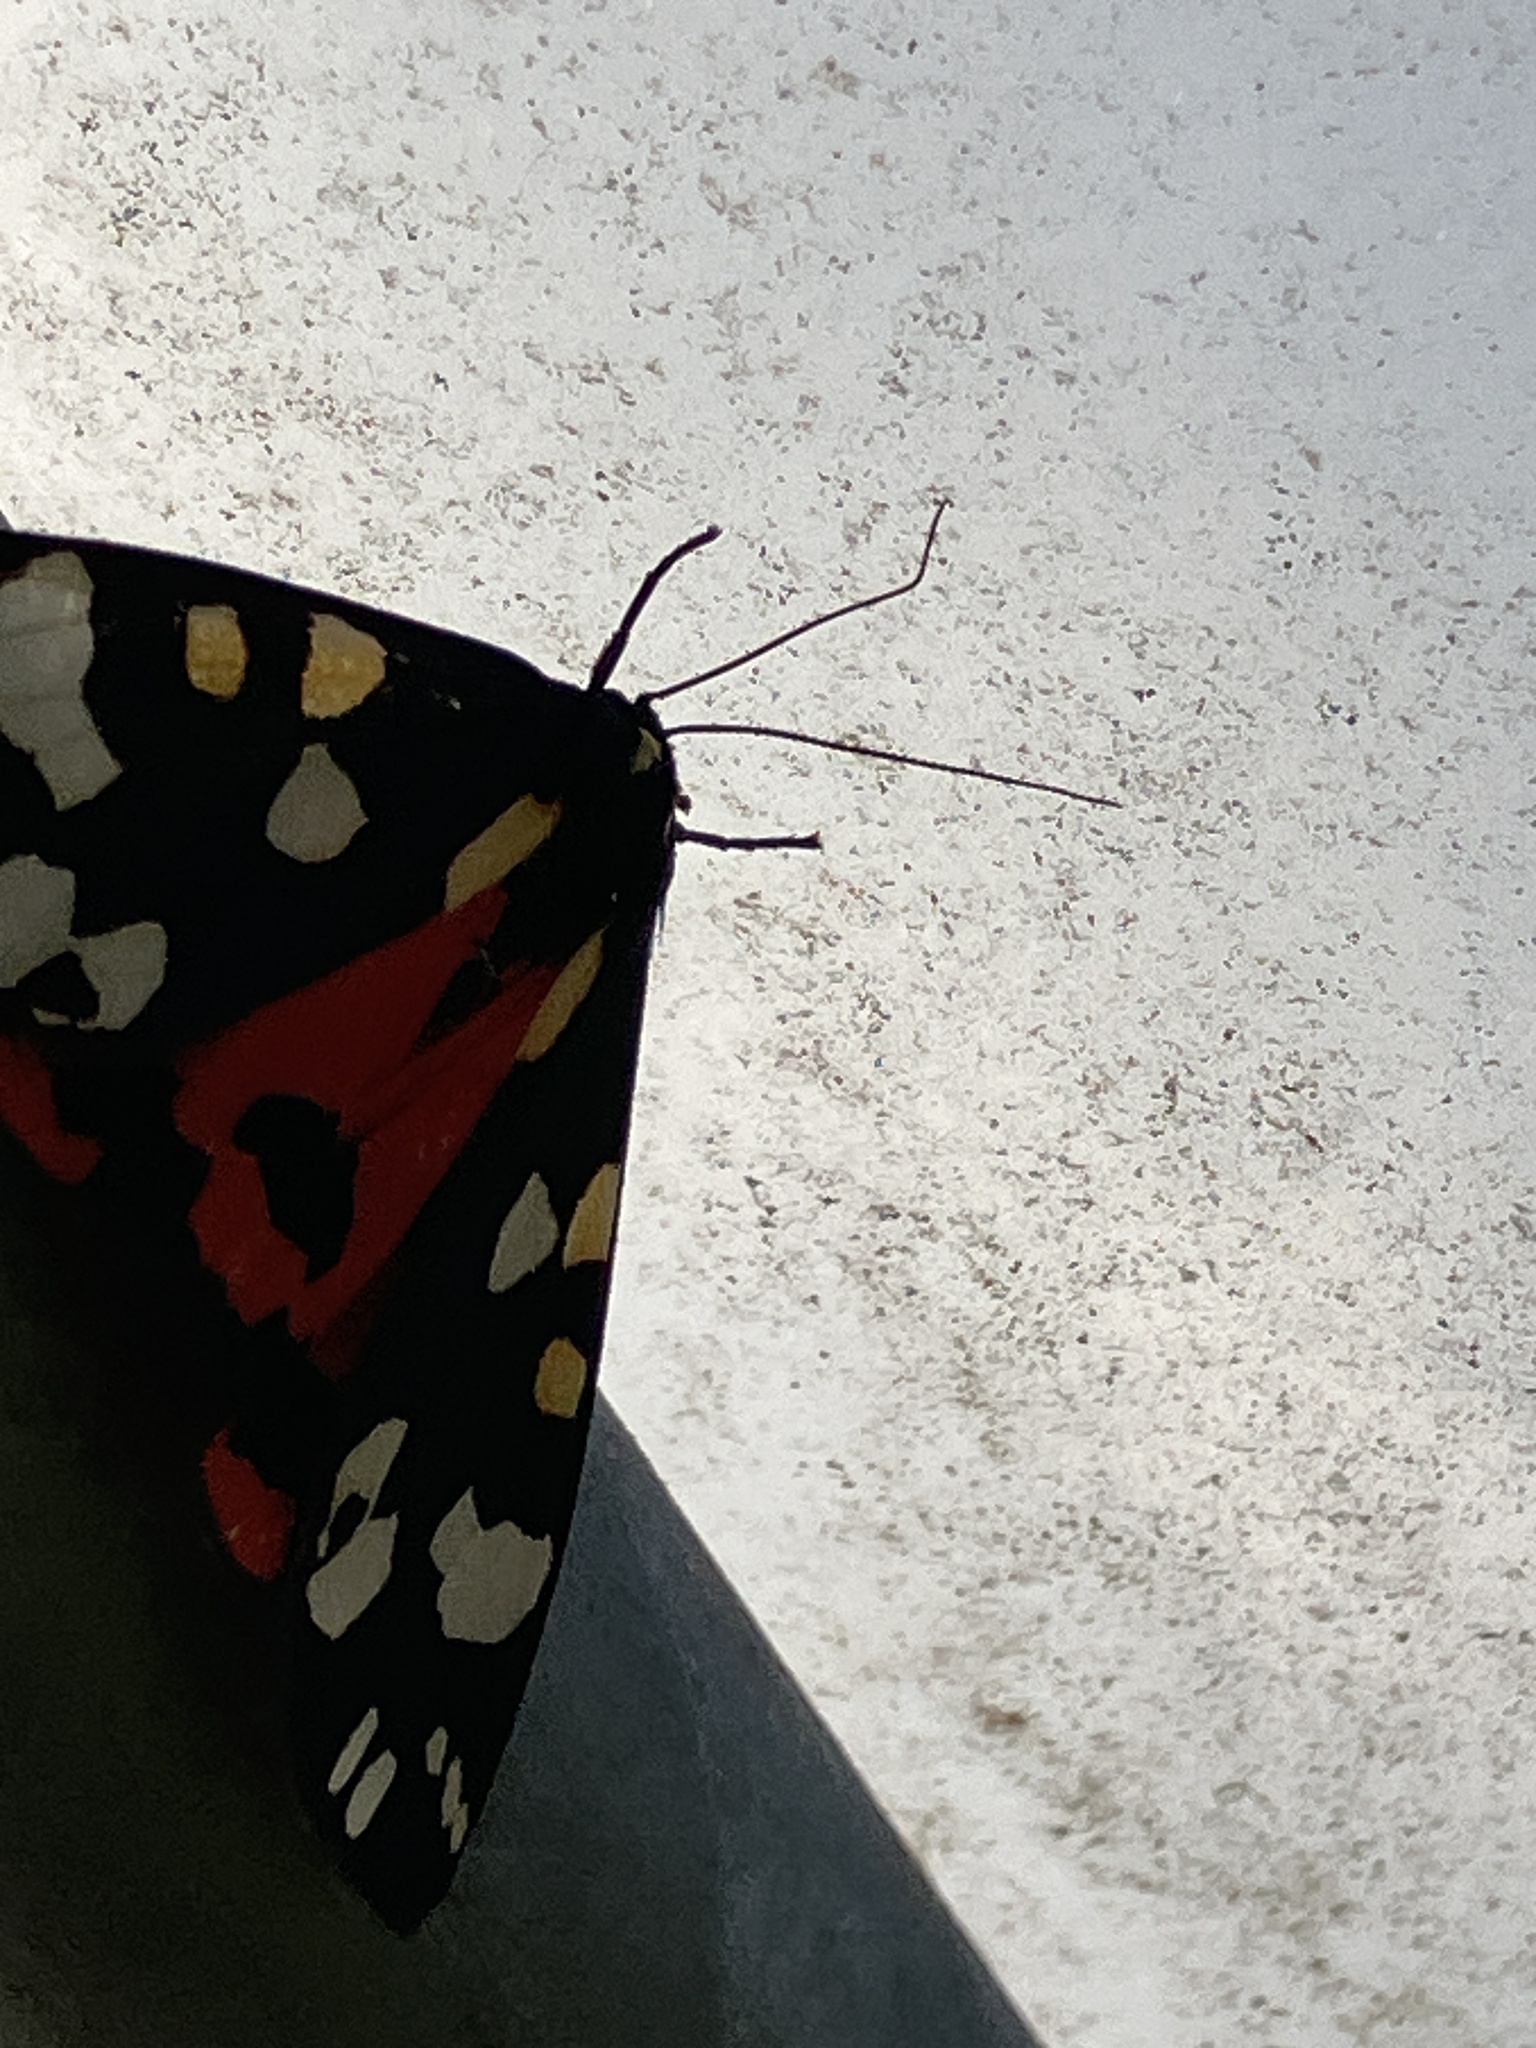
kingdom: Animalia
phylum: Arthropoda
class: Insecta
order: Lepidoptera
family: Erebidae
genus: Callimorpha
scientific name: Callimorpha dominula
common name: Scarlet tiger
